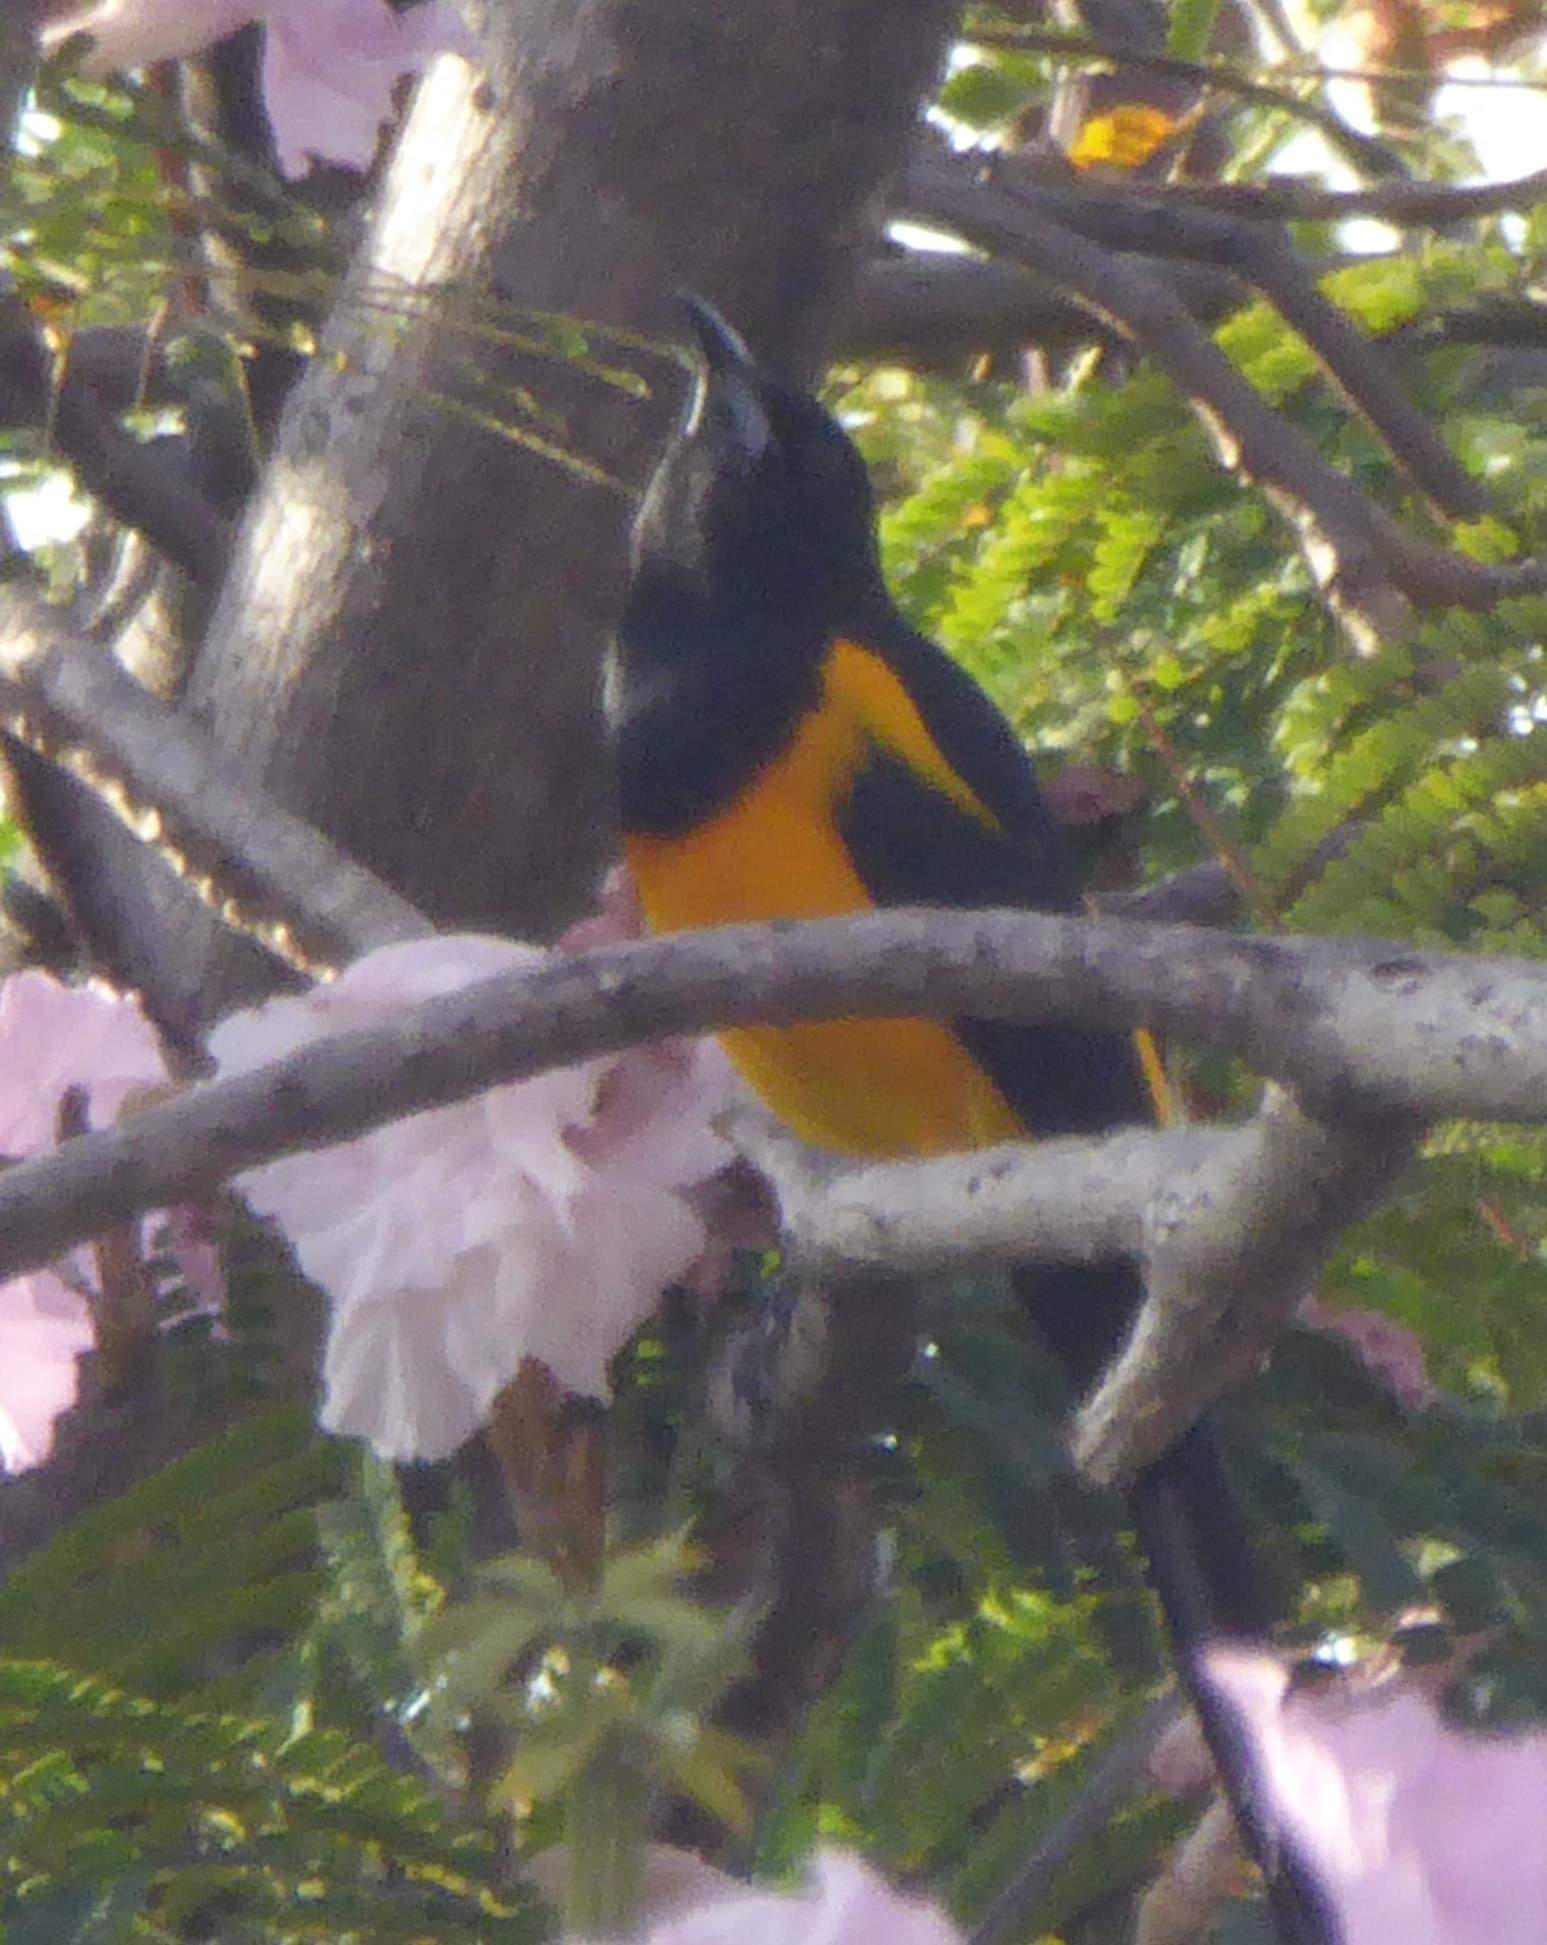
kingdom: Animalia
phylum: Chordata
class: Aves
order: Passeriformes
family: Icteridae
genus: Icterus
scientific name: Icterus wagleri
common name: Black-vented oriole
